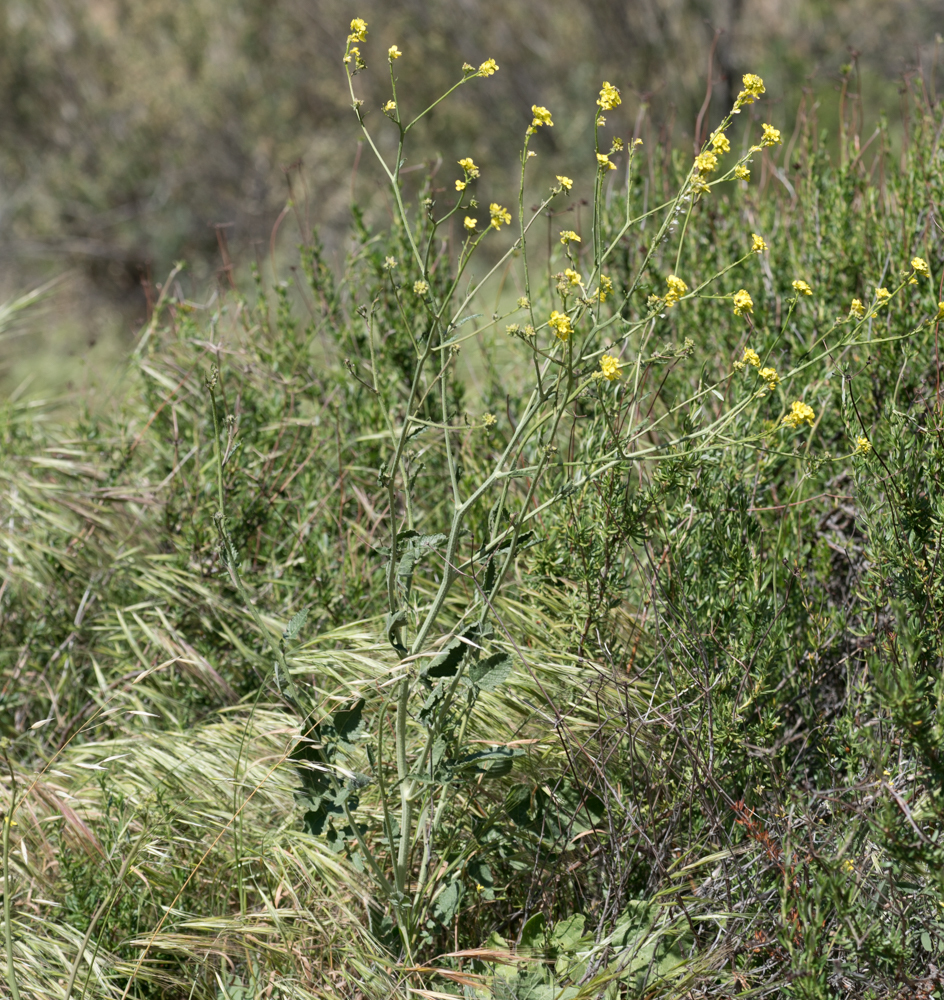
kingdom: Plantae
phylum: Tracheophyta
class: Magnoliopsida
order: Brassicales
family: Brassicaceae
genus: Hirschfeldia
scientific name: Hirschfeldia incana
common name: Hoary mustard
